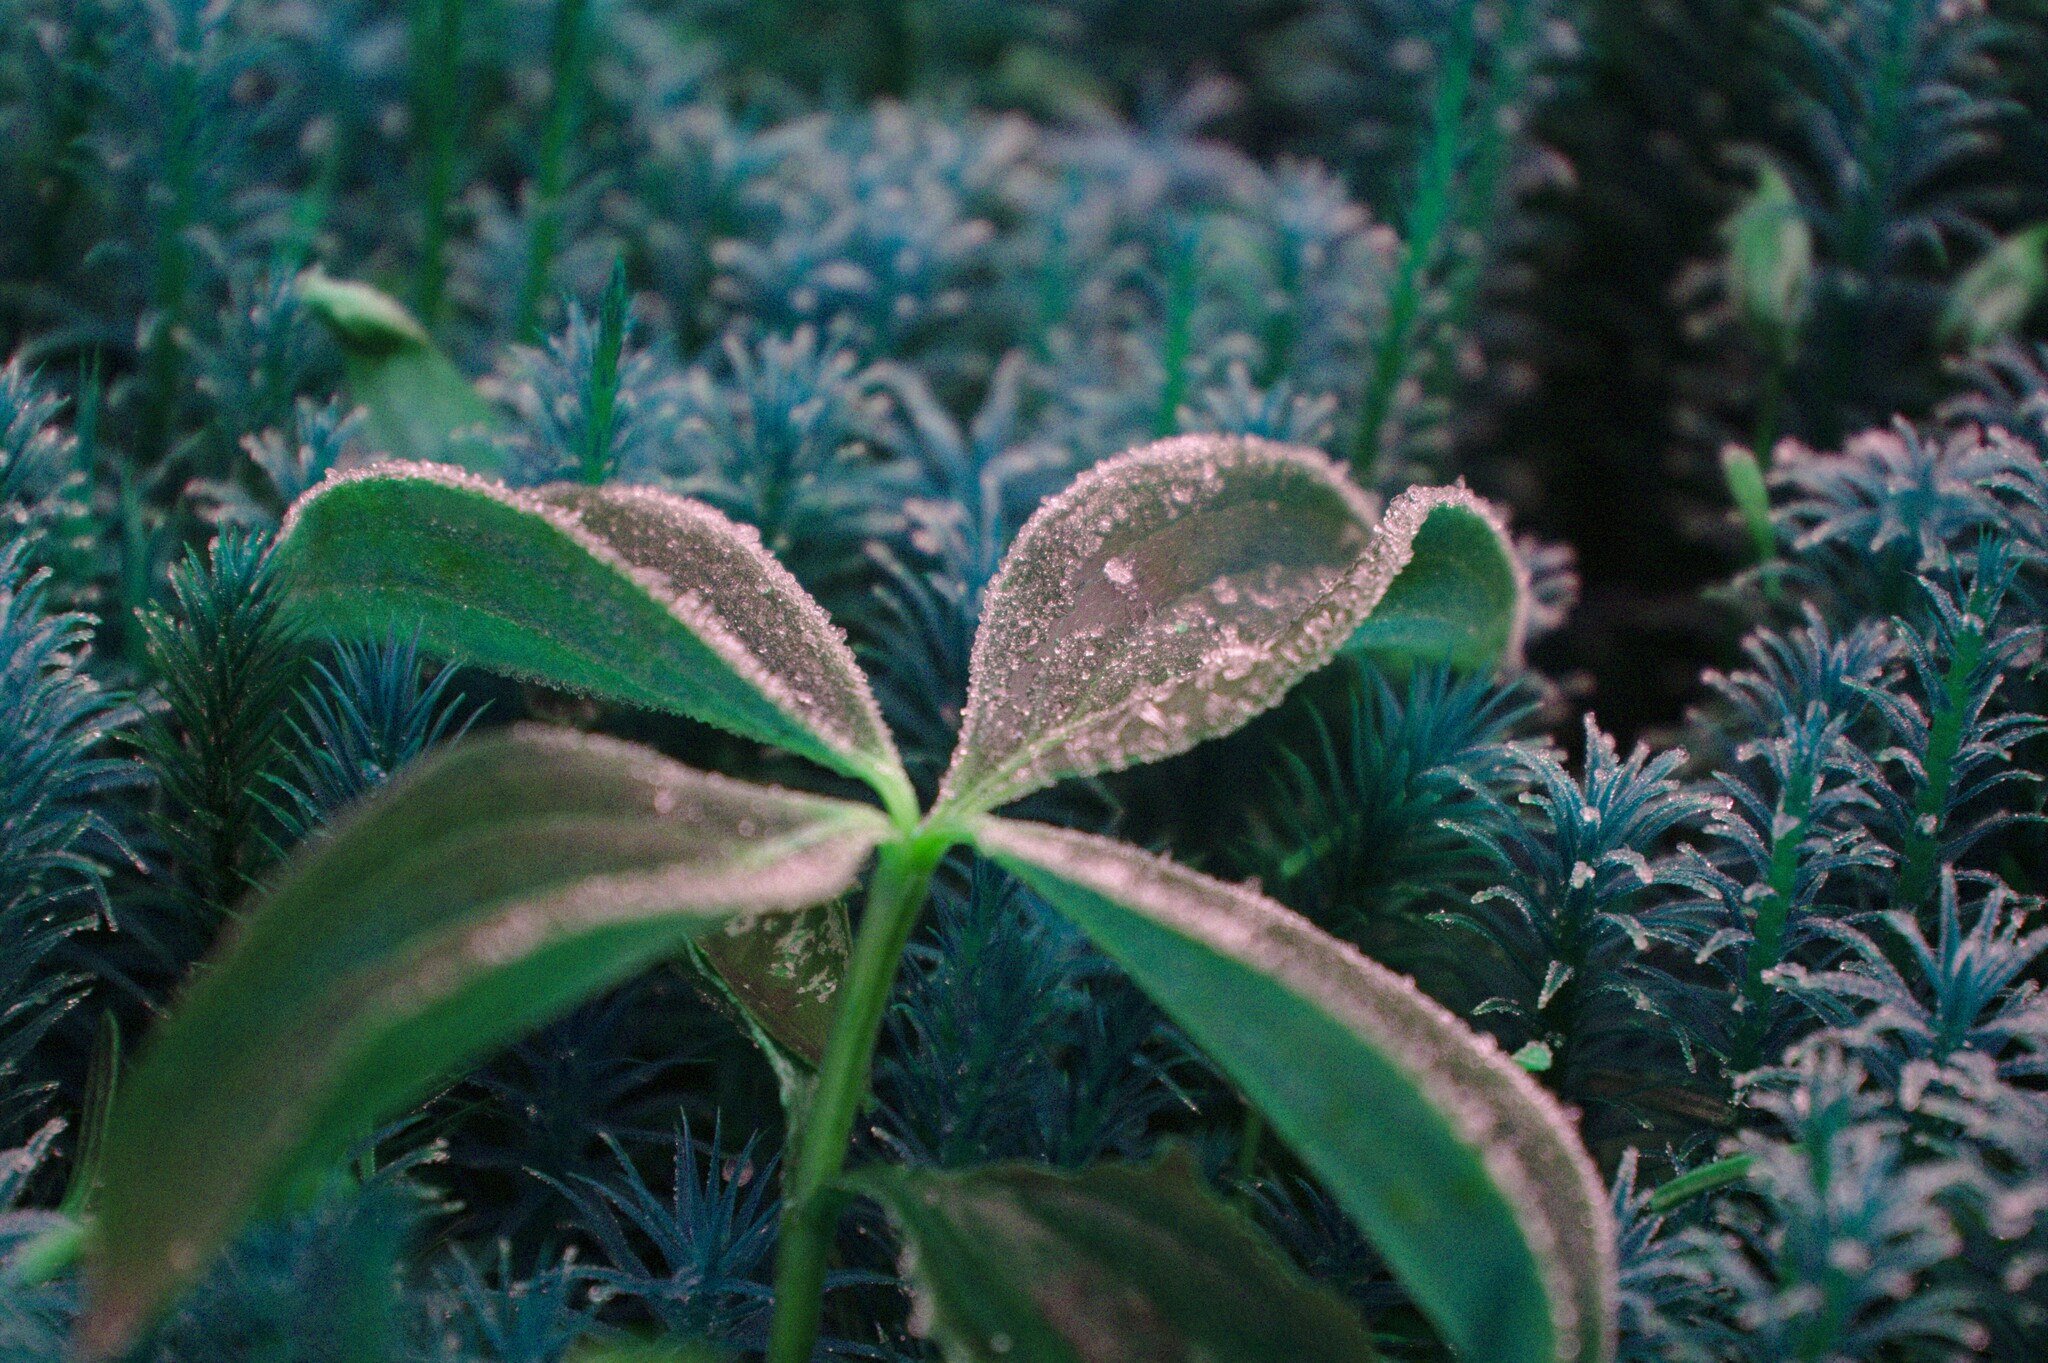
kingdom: Plantae
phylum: Tracheophyta
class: Magnoliopsida
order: Cornales
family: Cornaceae
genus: Cornus
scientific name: Cornus canadensis
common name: Creeping dogwood
